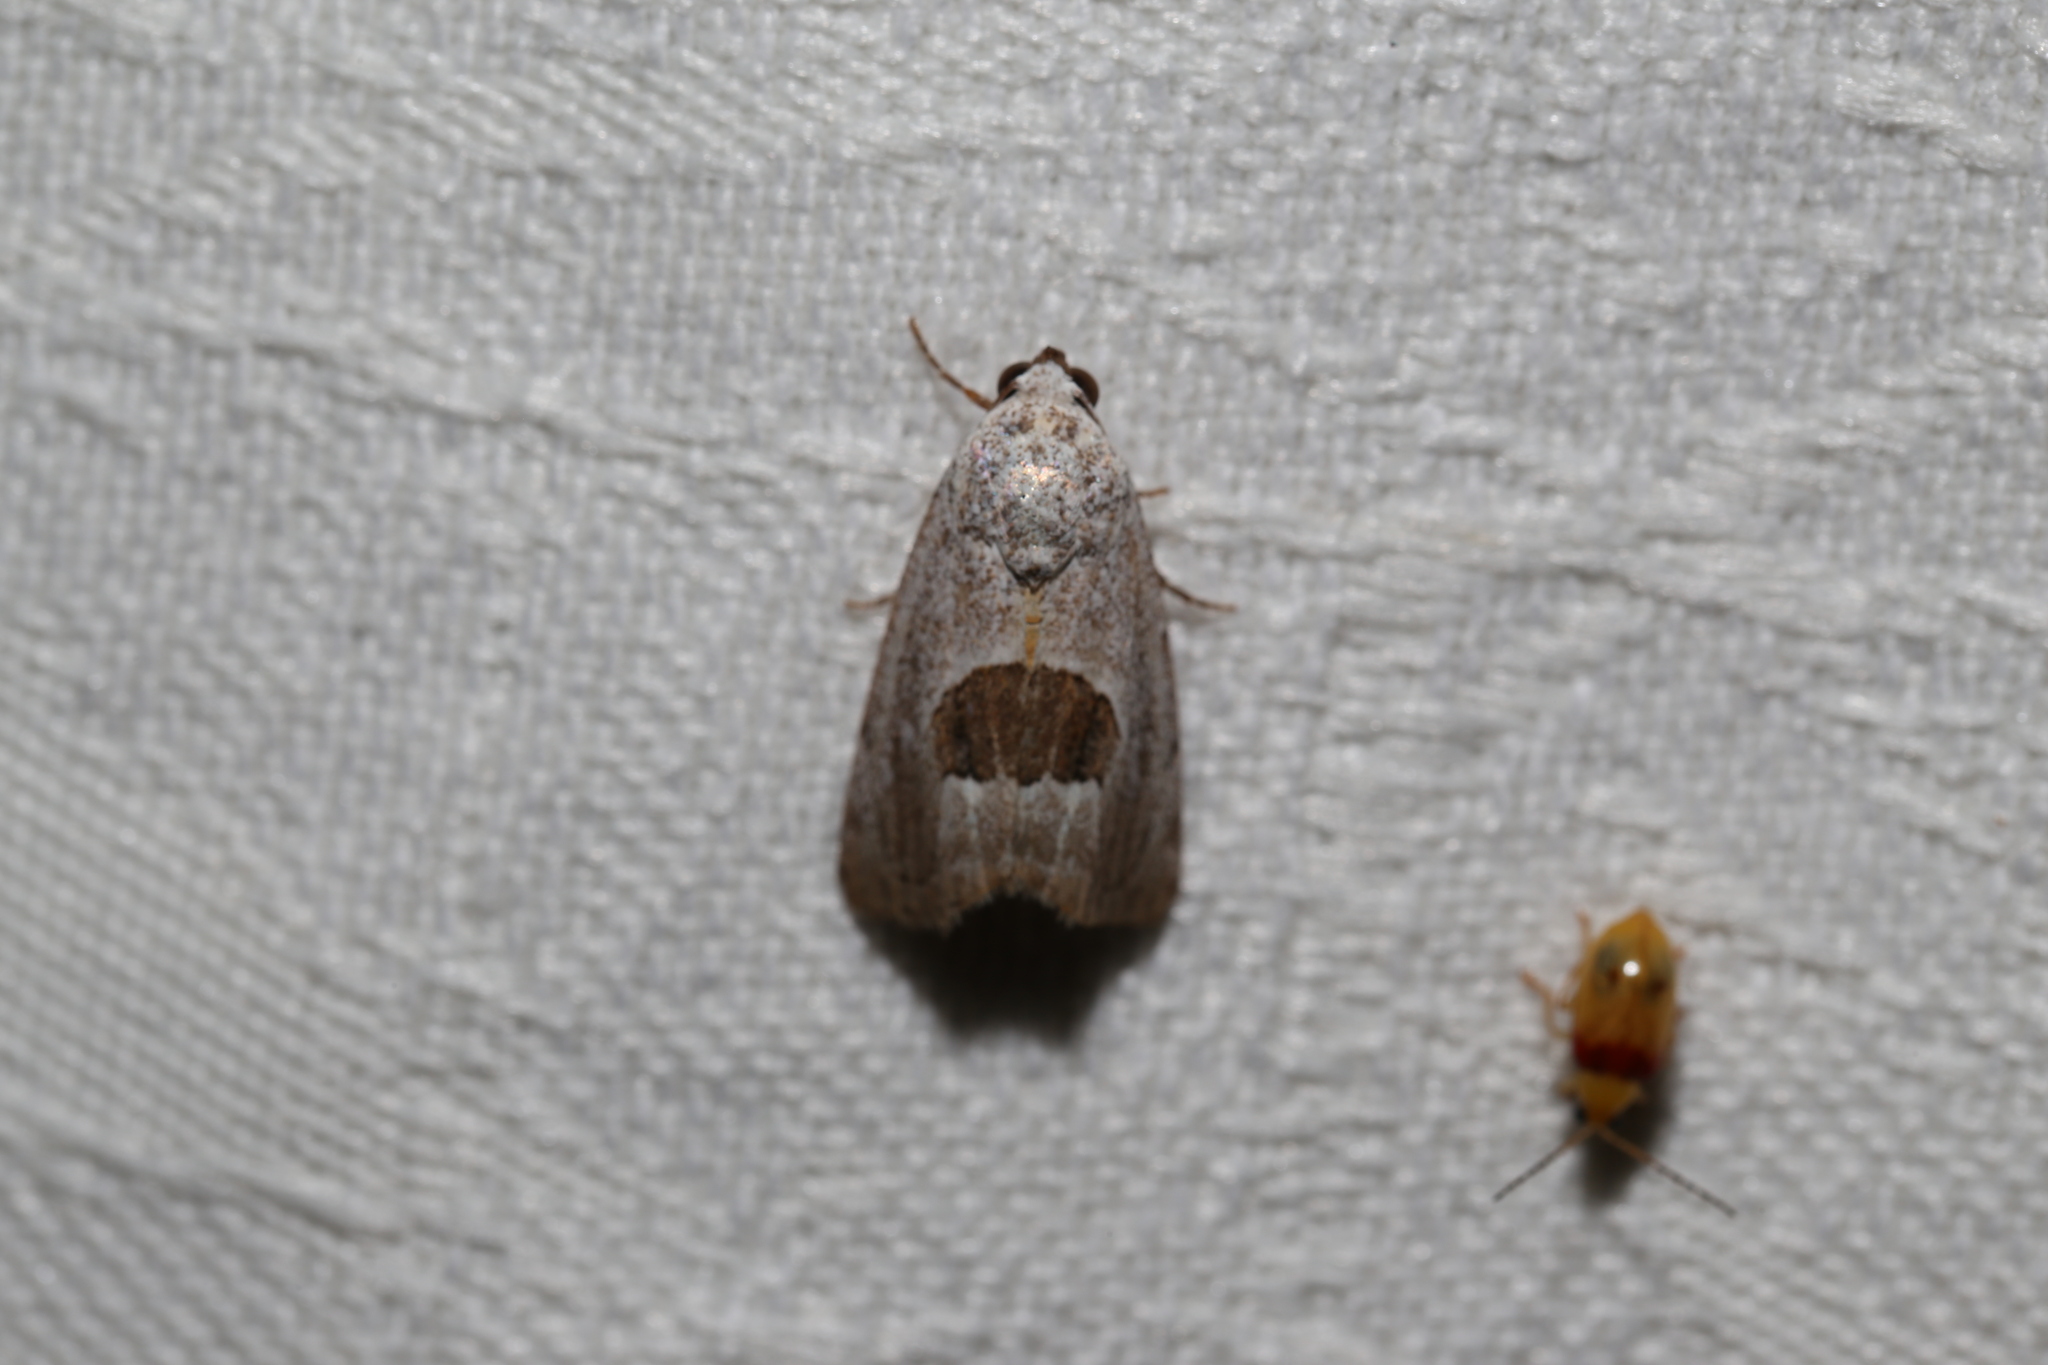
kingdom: Animalia
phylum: Arthropoda
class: Insecta
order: Lepidoptera
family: Nolidae
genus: Armactica
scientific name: Armactica conchidia
